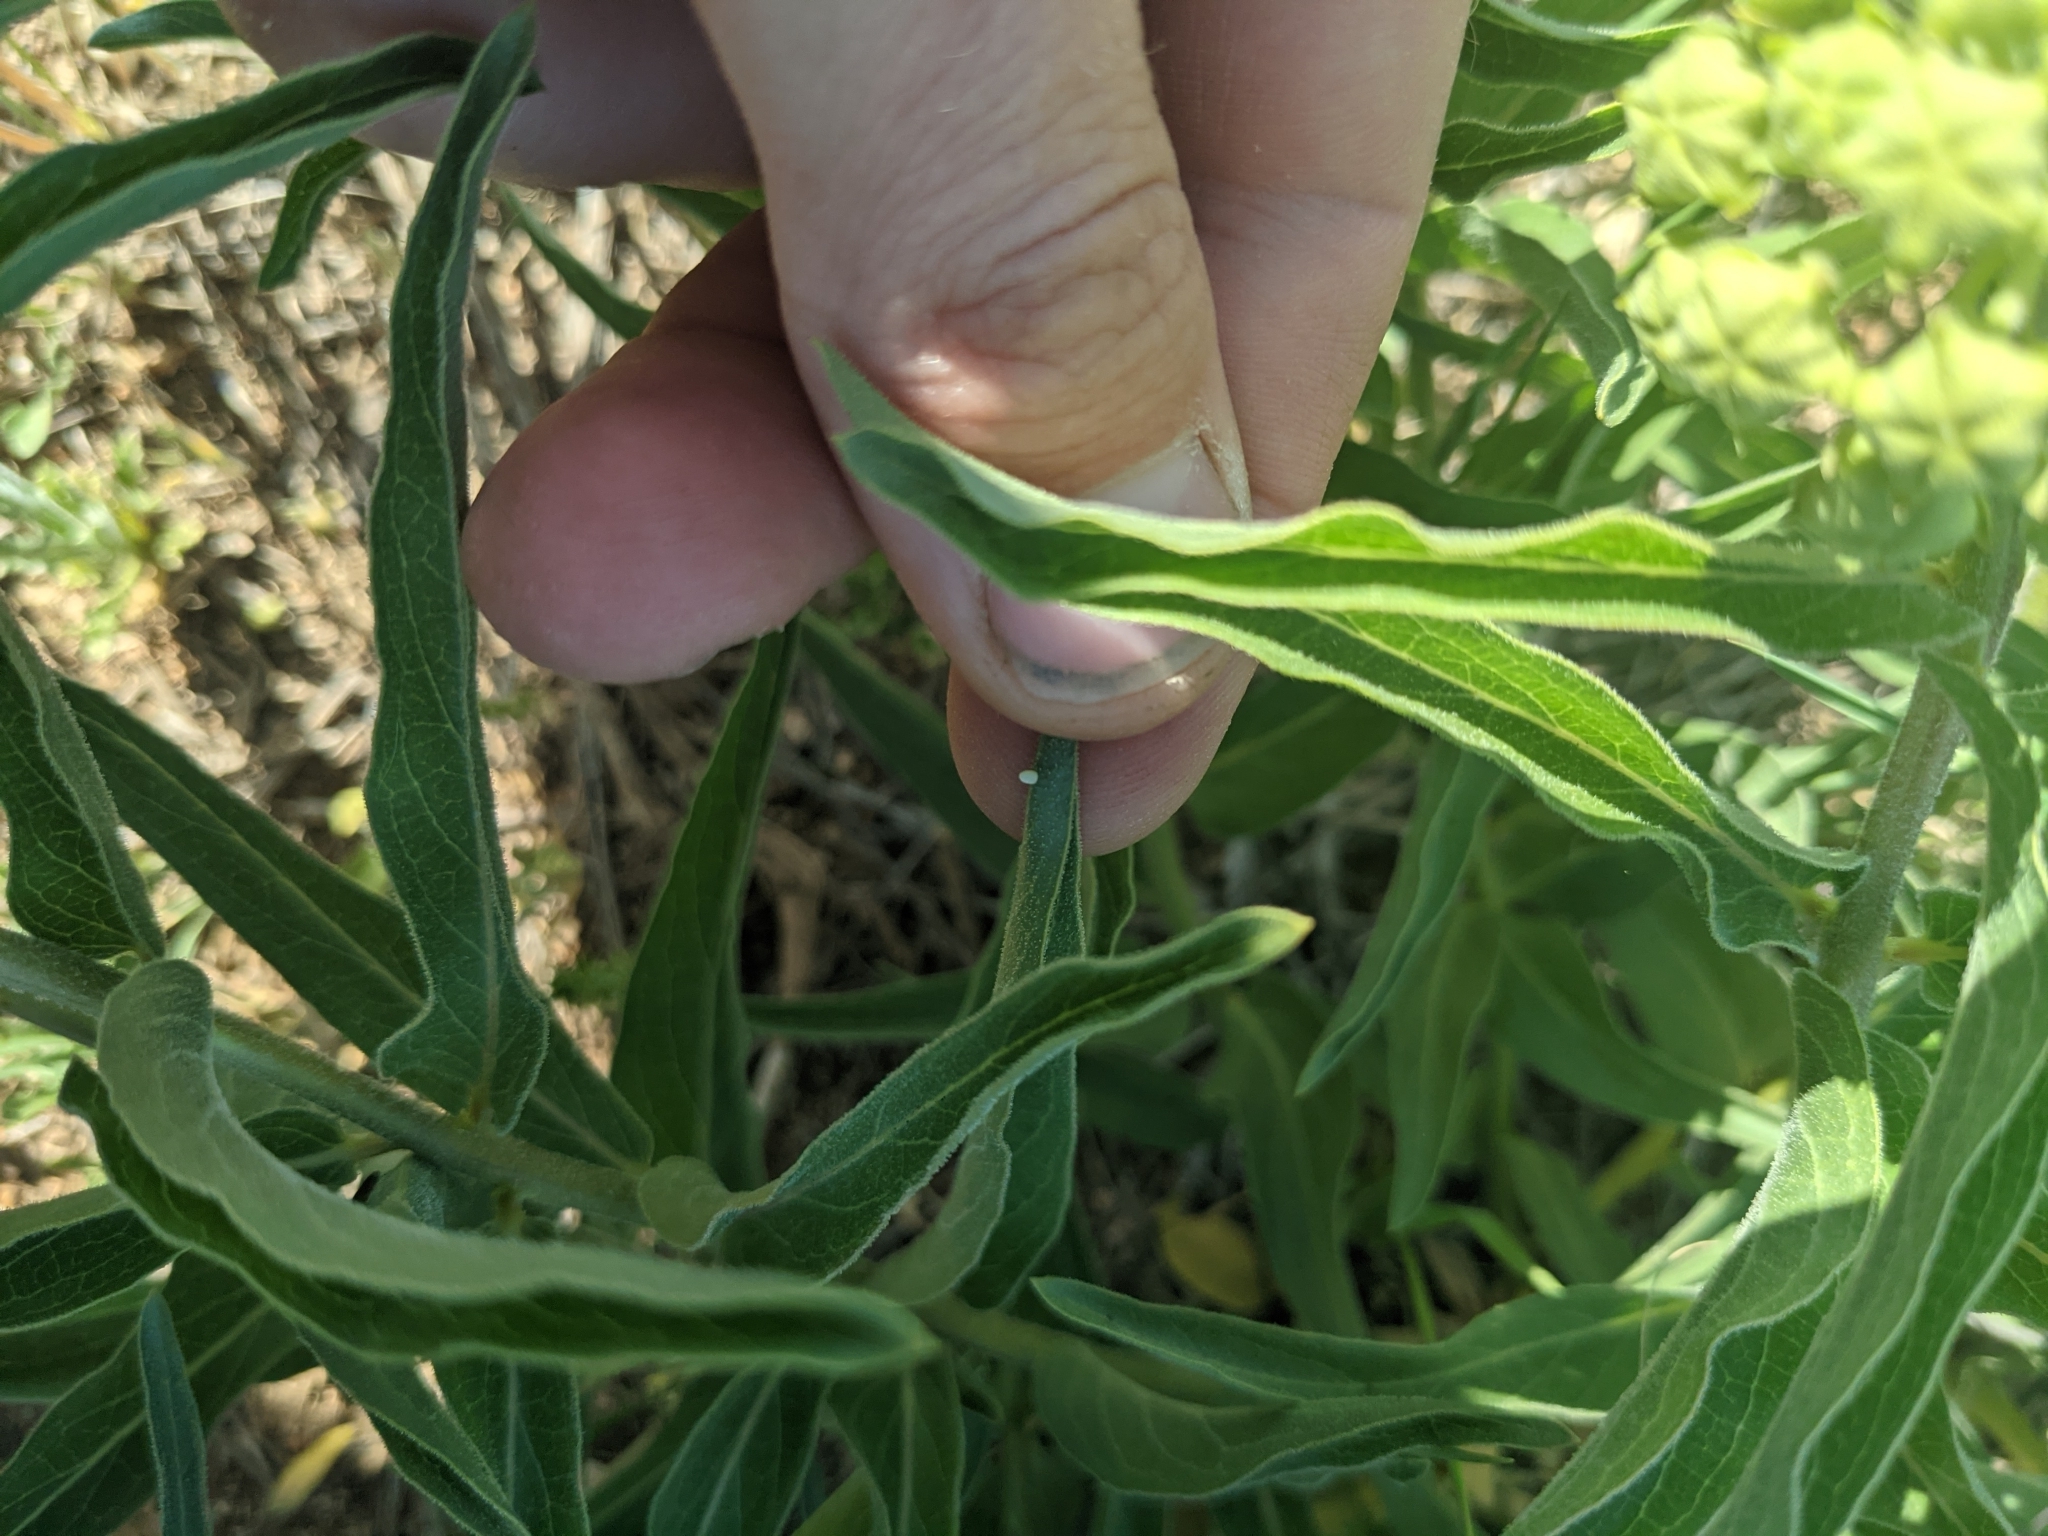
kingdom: Animalia
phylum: Arthropoda
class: Insecta
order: Lepidoptera
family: Nymphalidae
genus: Danaus
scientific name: Danaus plexippus
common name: Monarch
